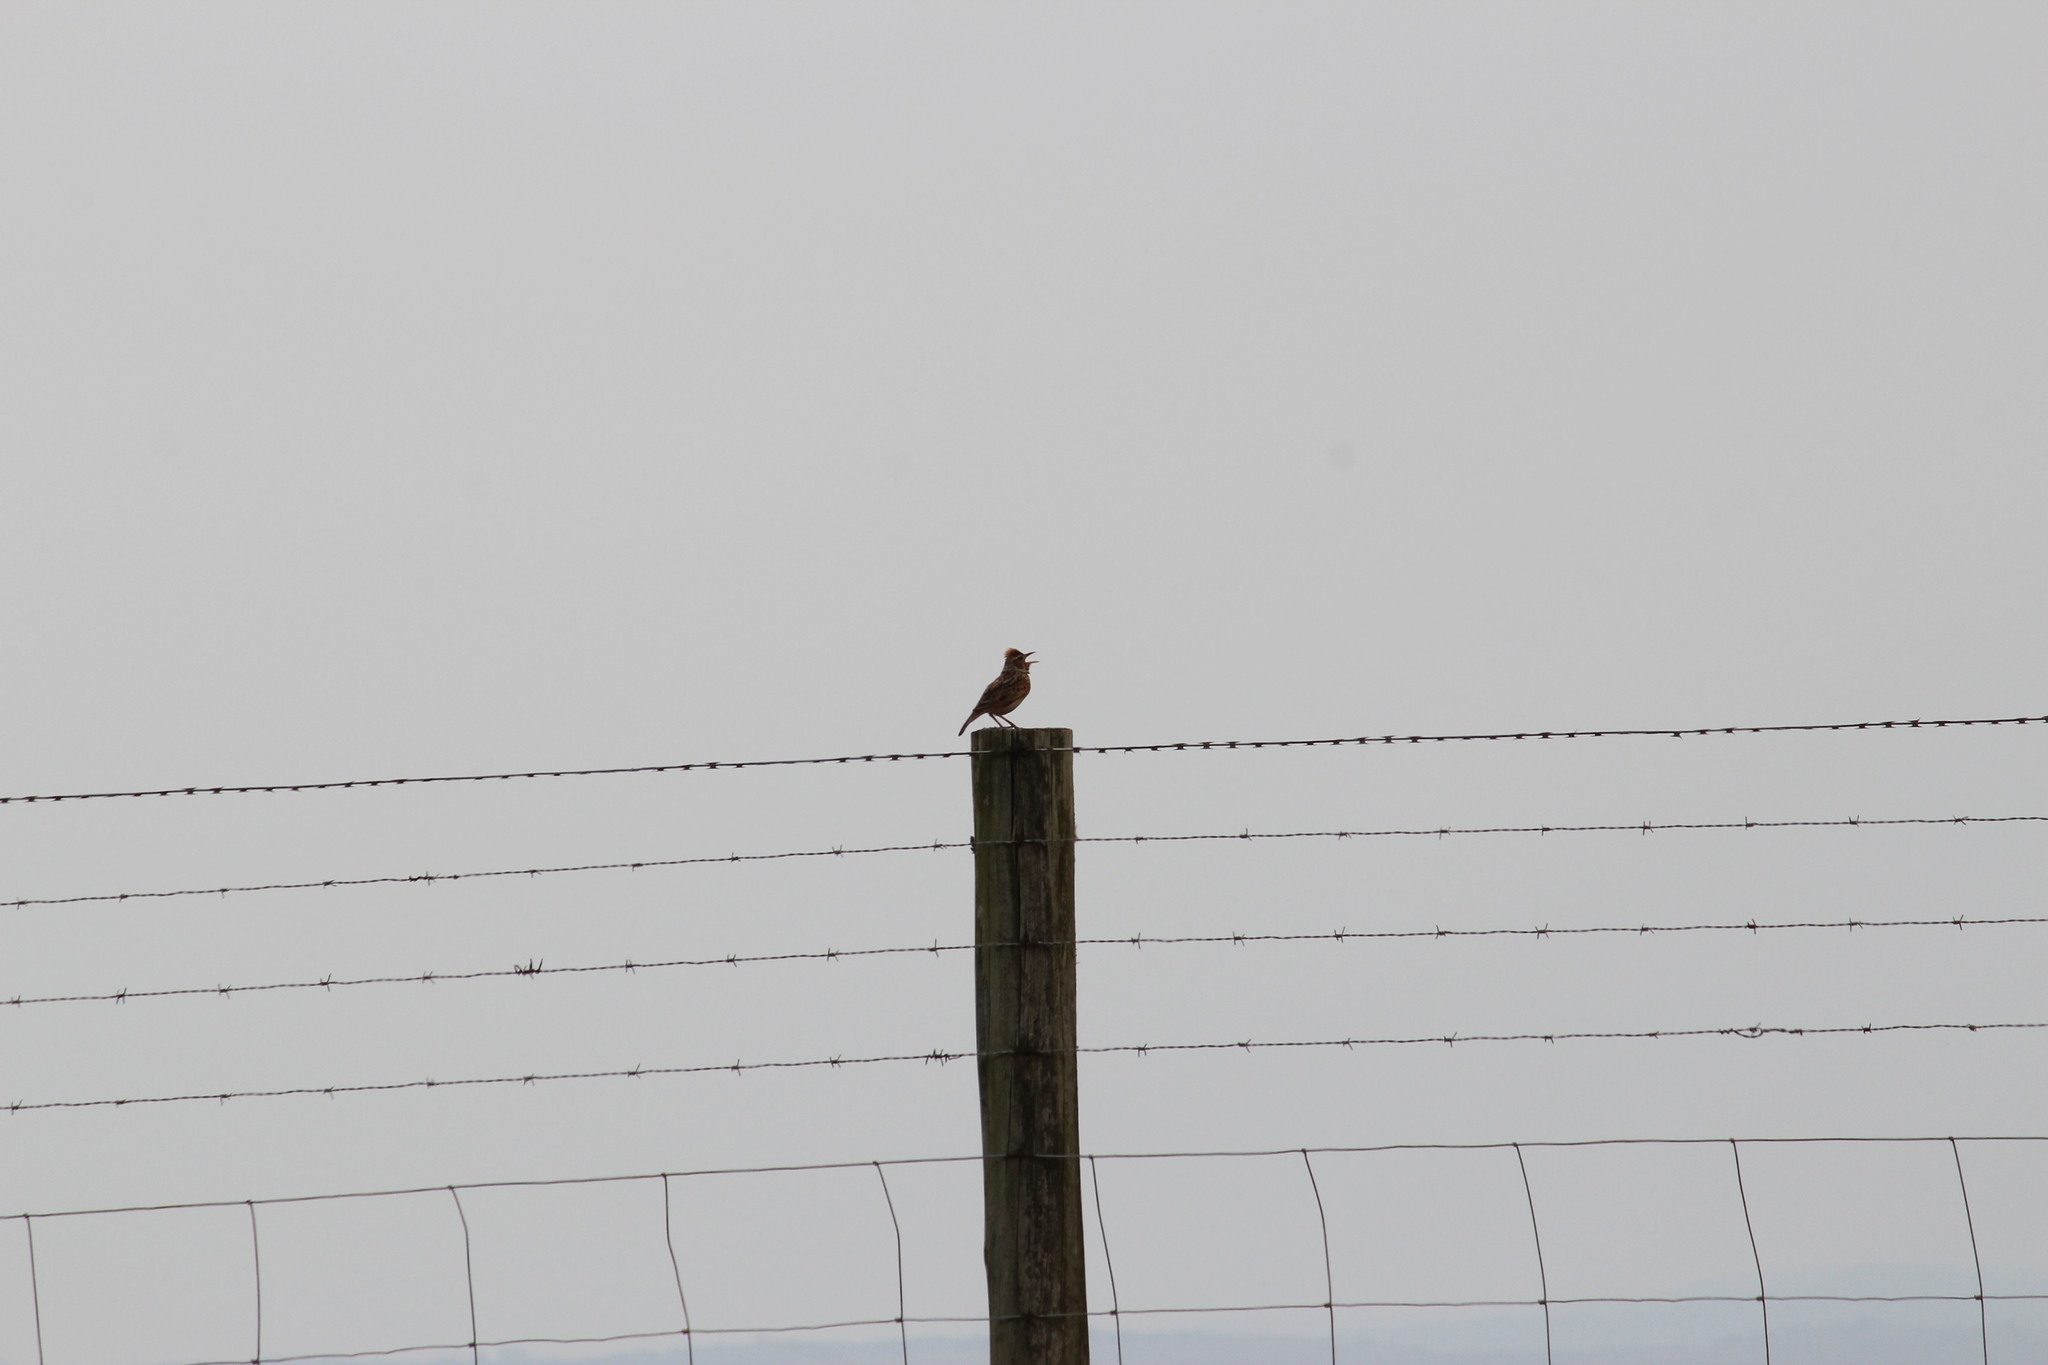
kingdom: Animalia
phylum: Chordata
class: Aves
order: Passeriformes
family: Alaudidae
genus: Mirafra
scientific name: Mirafra africana
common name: Rufous-naped lark
